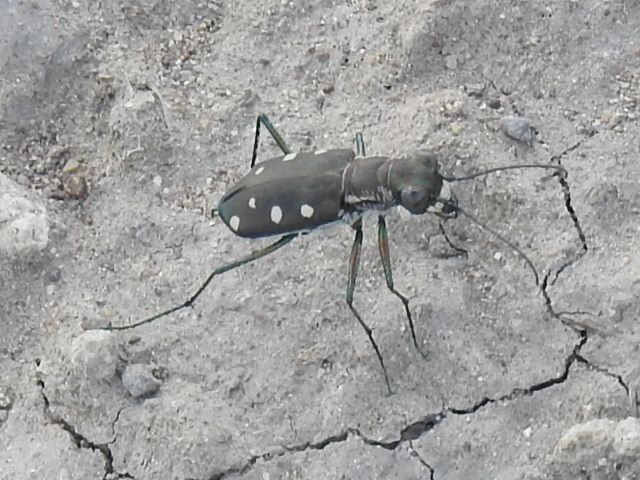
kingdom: Animalia
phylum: Arthropoda
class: Insecta
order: Coleoptera
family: Carabidae
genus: Cicindela
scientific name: Cicindela ocellata
